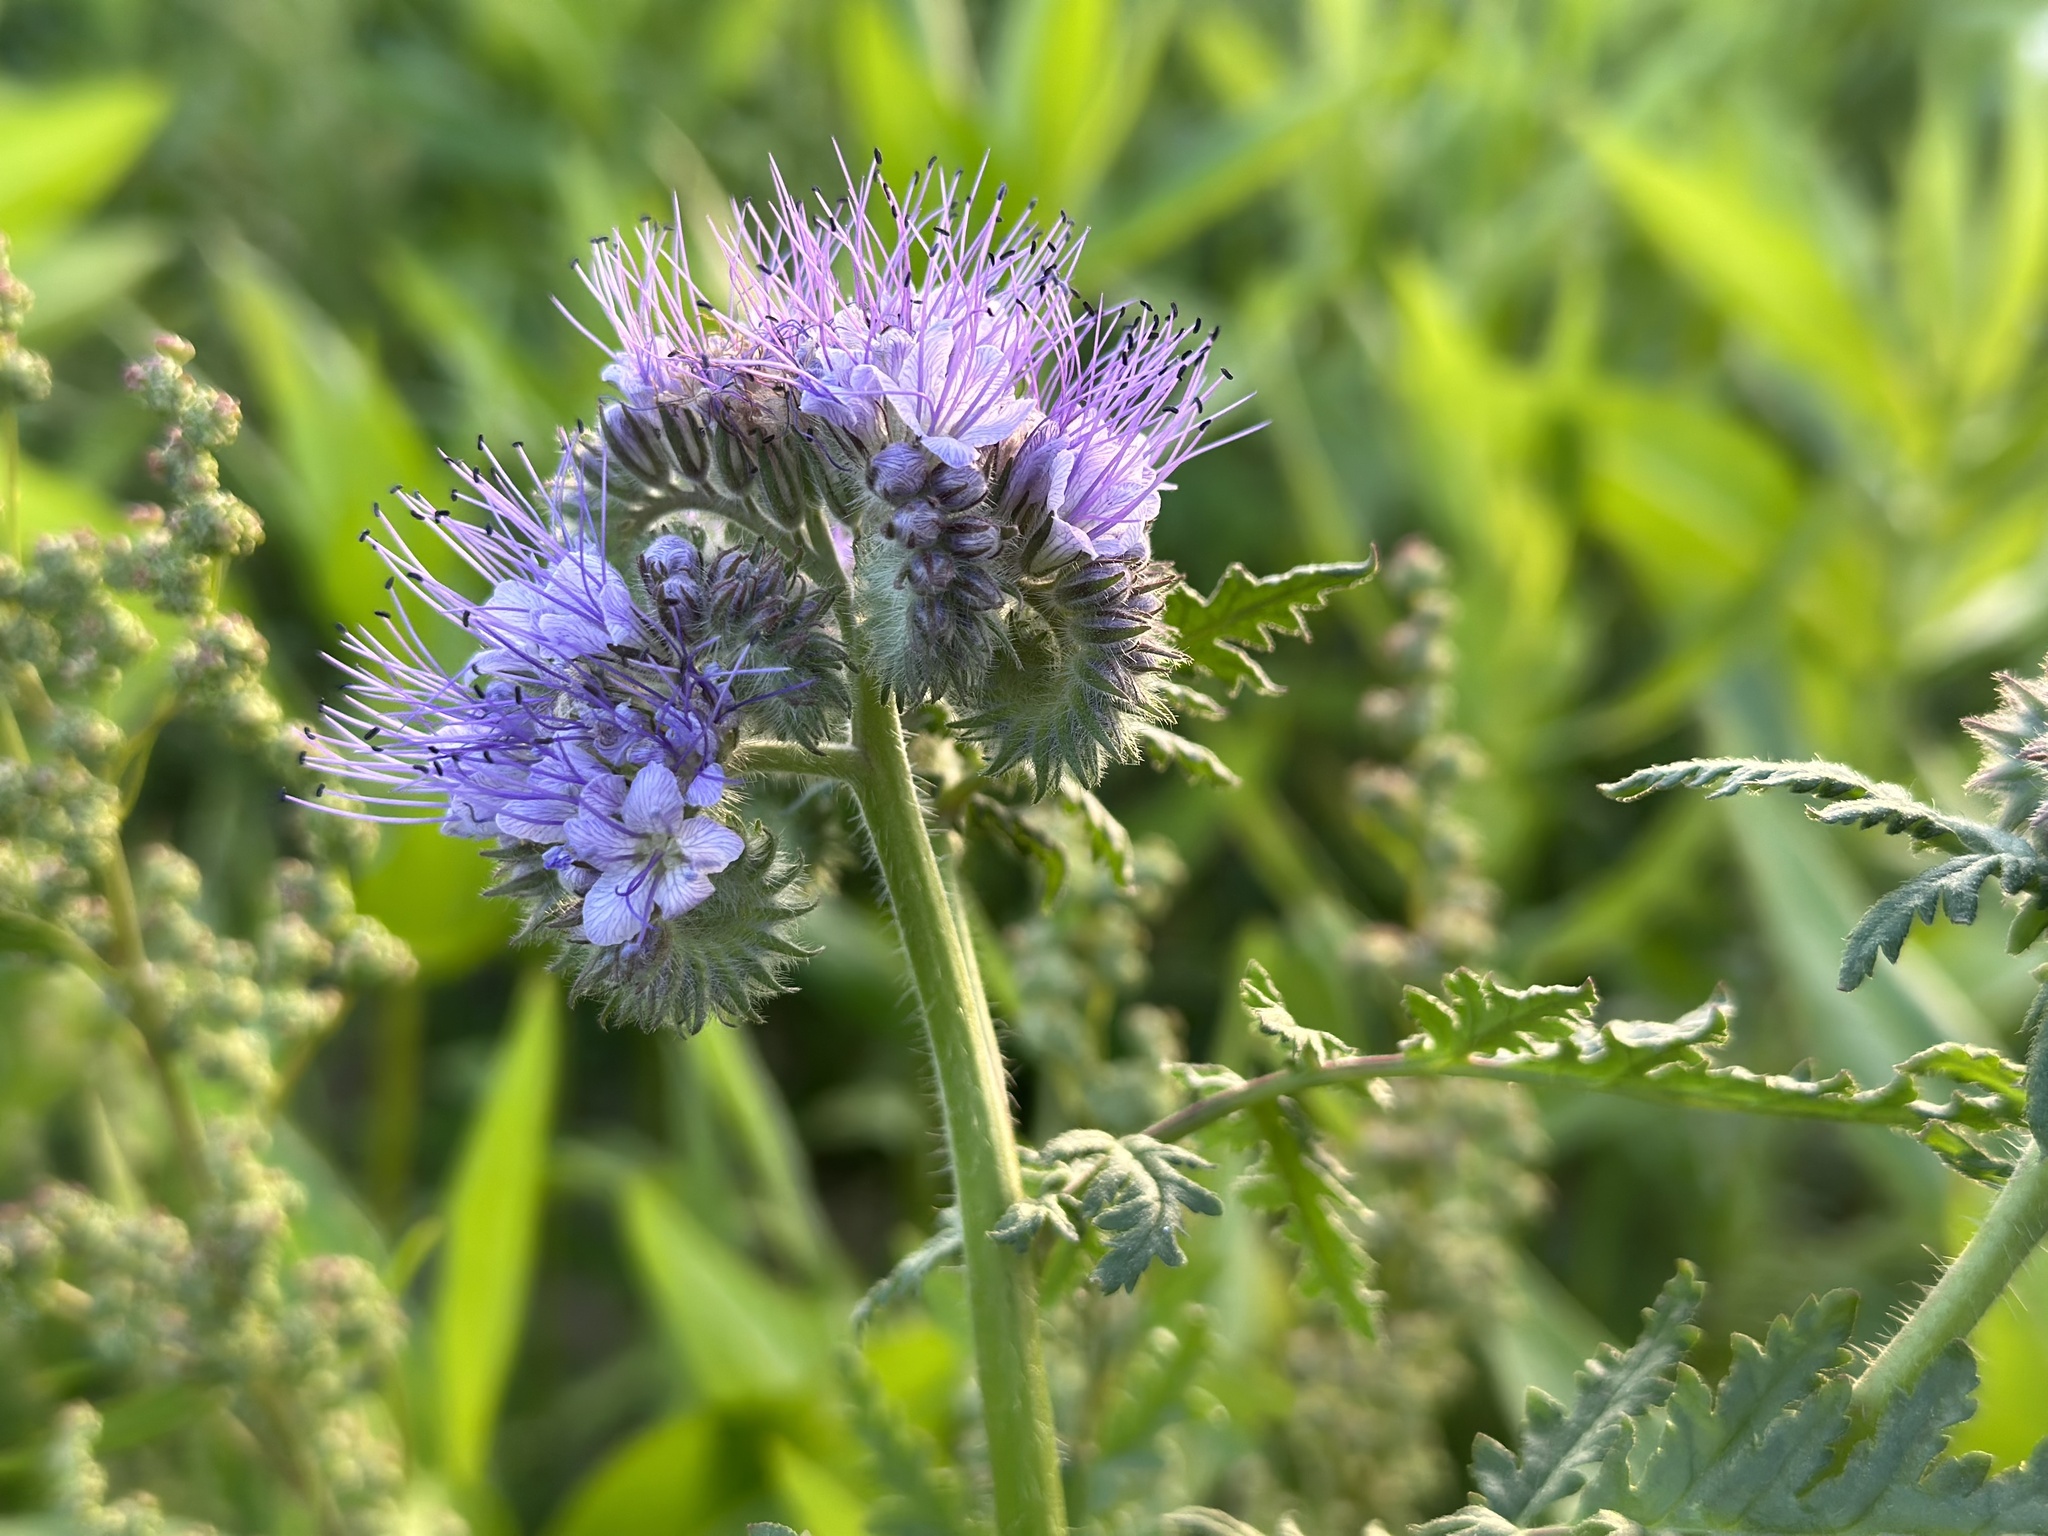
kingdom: Plantae
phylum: Tracheophyta
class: Magnoliopsida
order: Boraginales
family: Hydrophyllaceae
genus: Phacelia
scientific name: Phacelia tanacetifolia
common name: Phacelia
